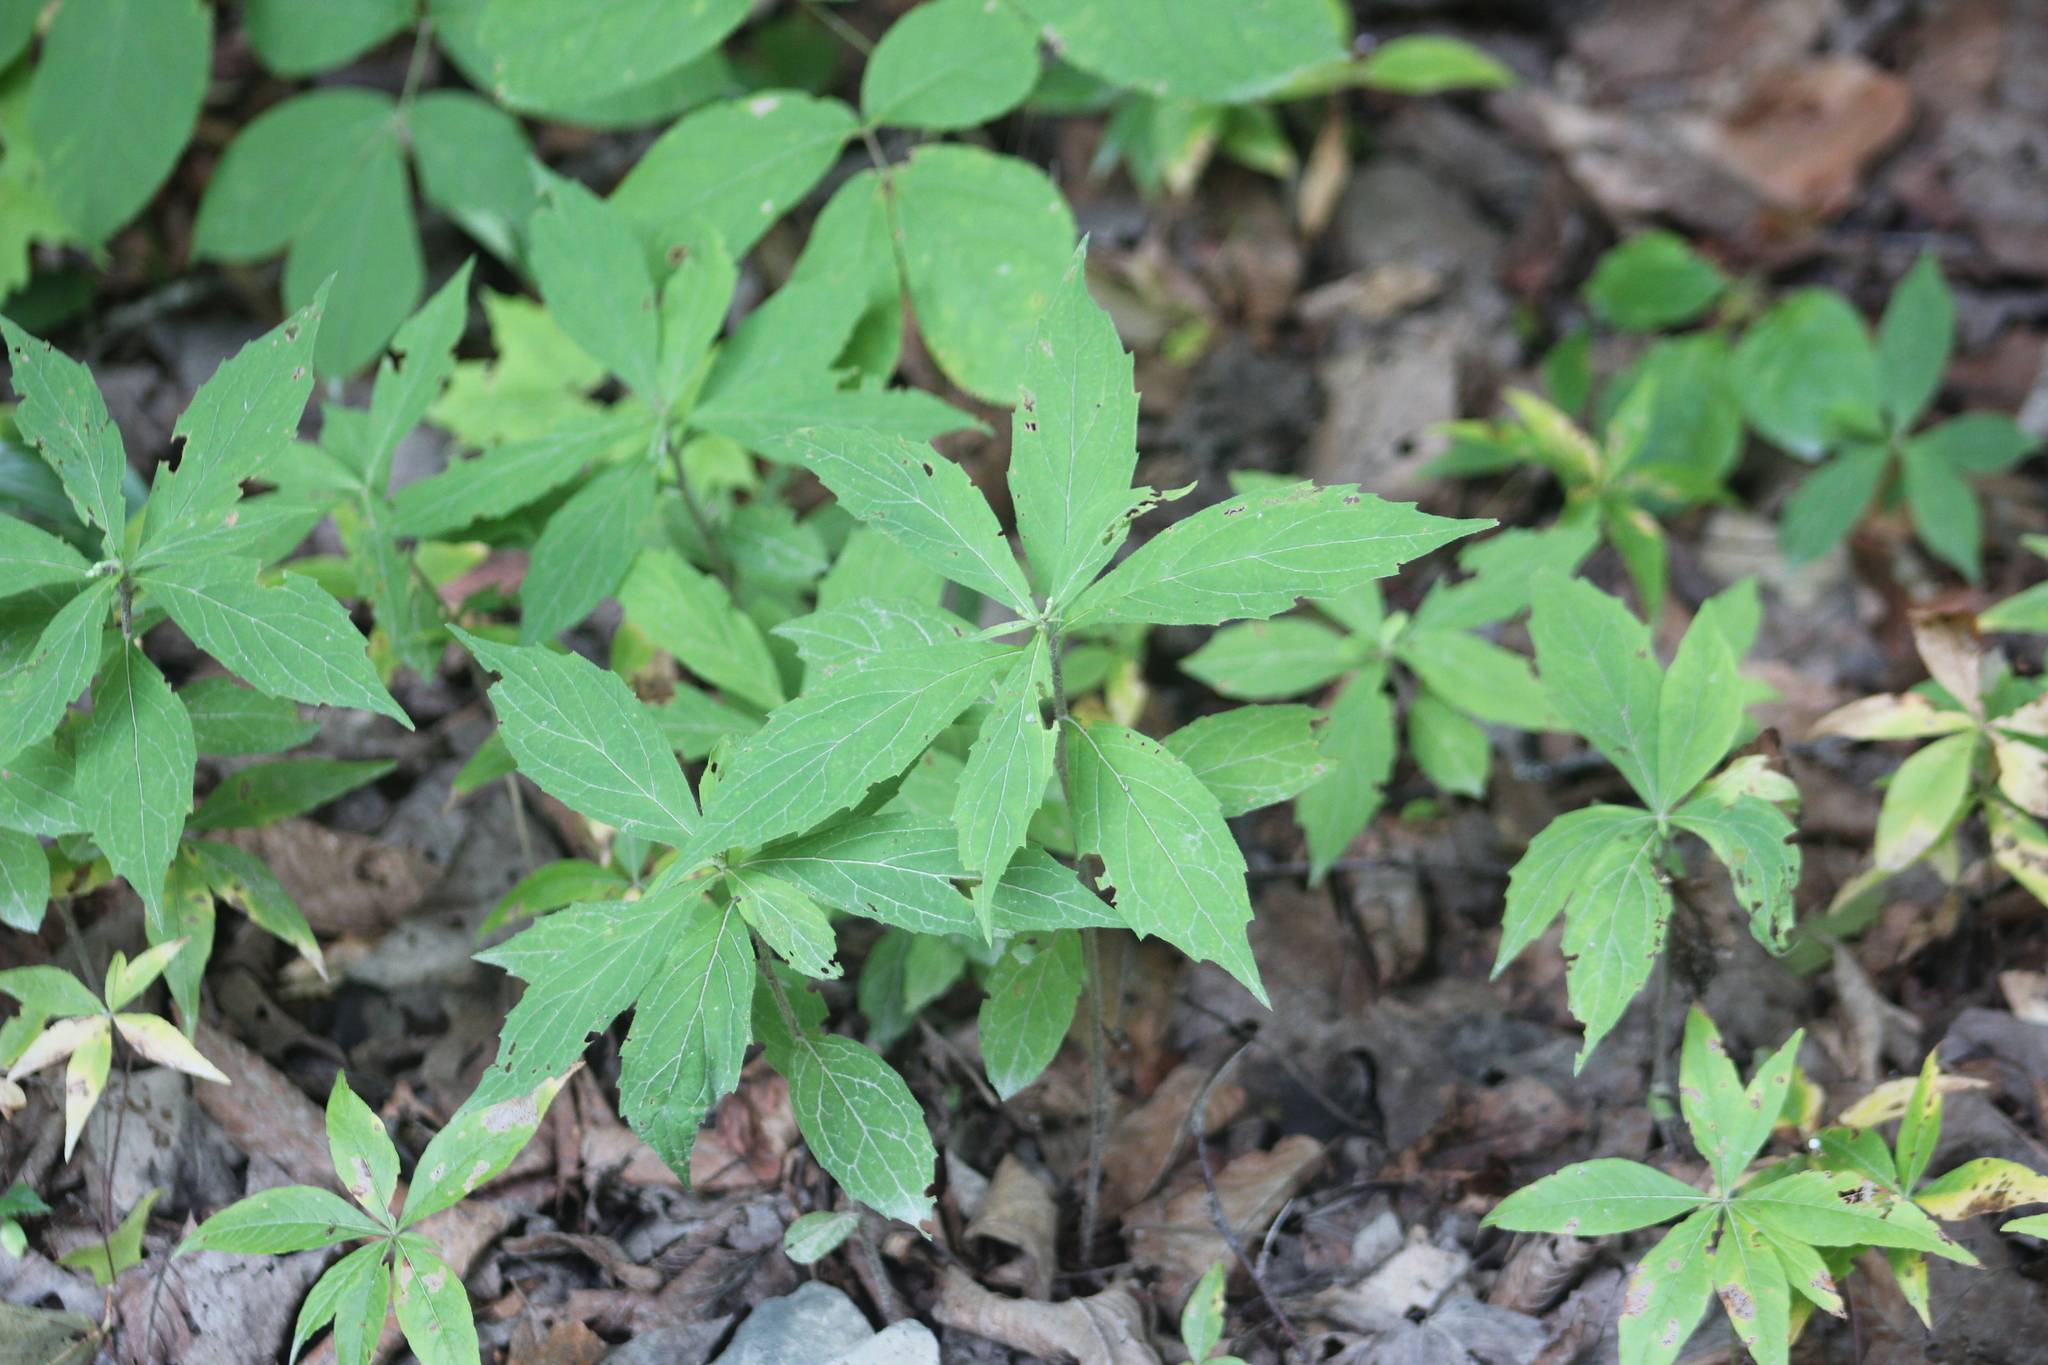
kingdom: Plantae
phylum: Tracheophyta
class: Magnoliopsida
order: Asterales
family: Asteraceae
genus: Oclemena
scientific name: Oclemena acuminata
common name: Mountain aster
